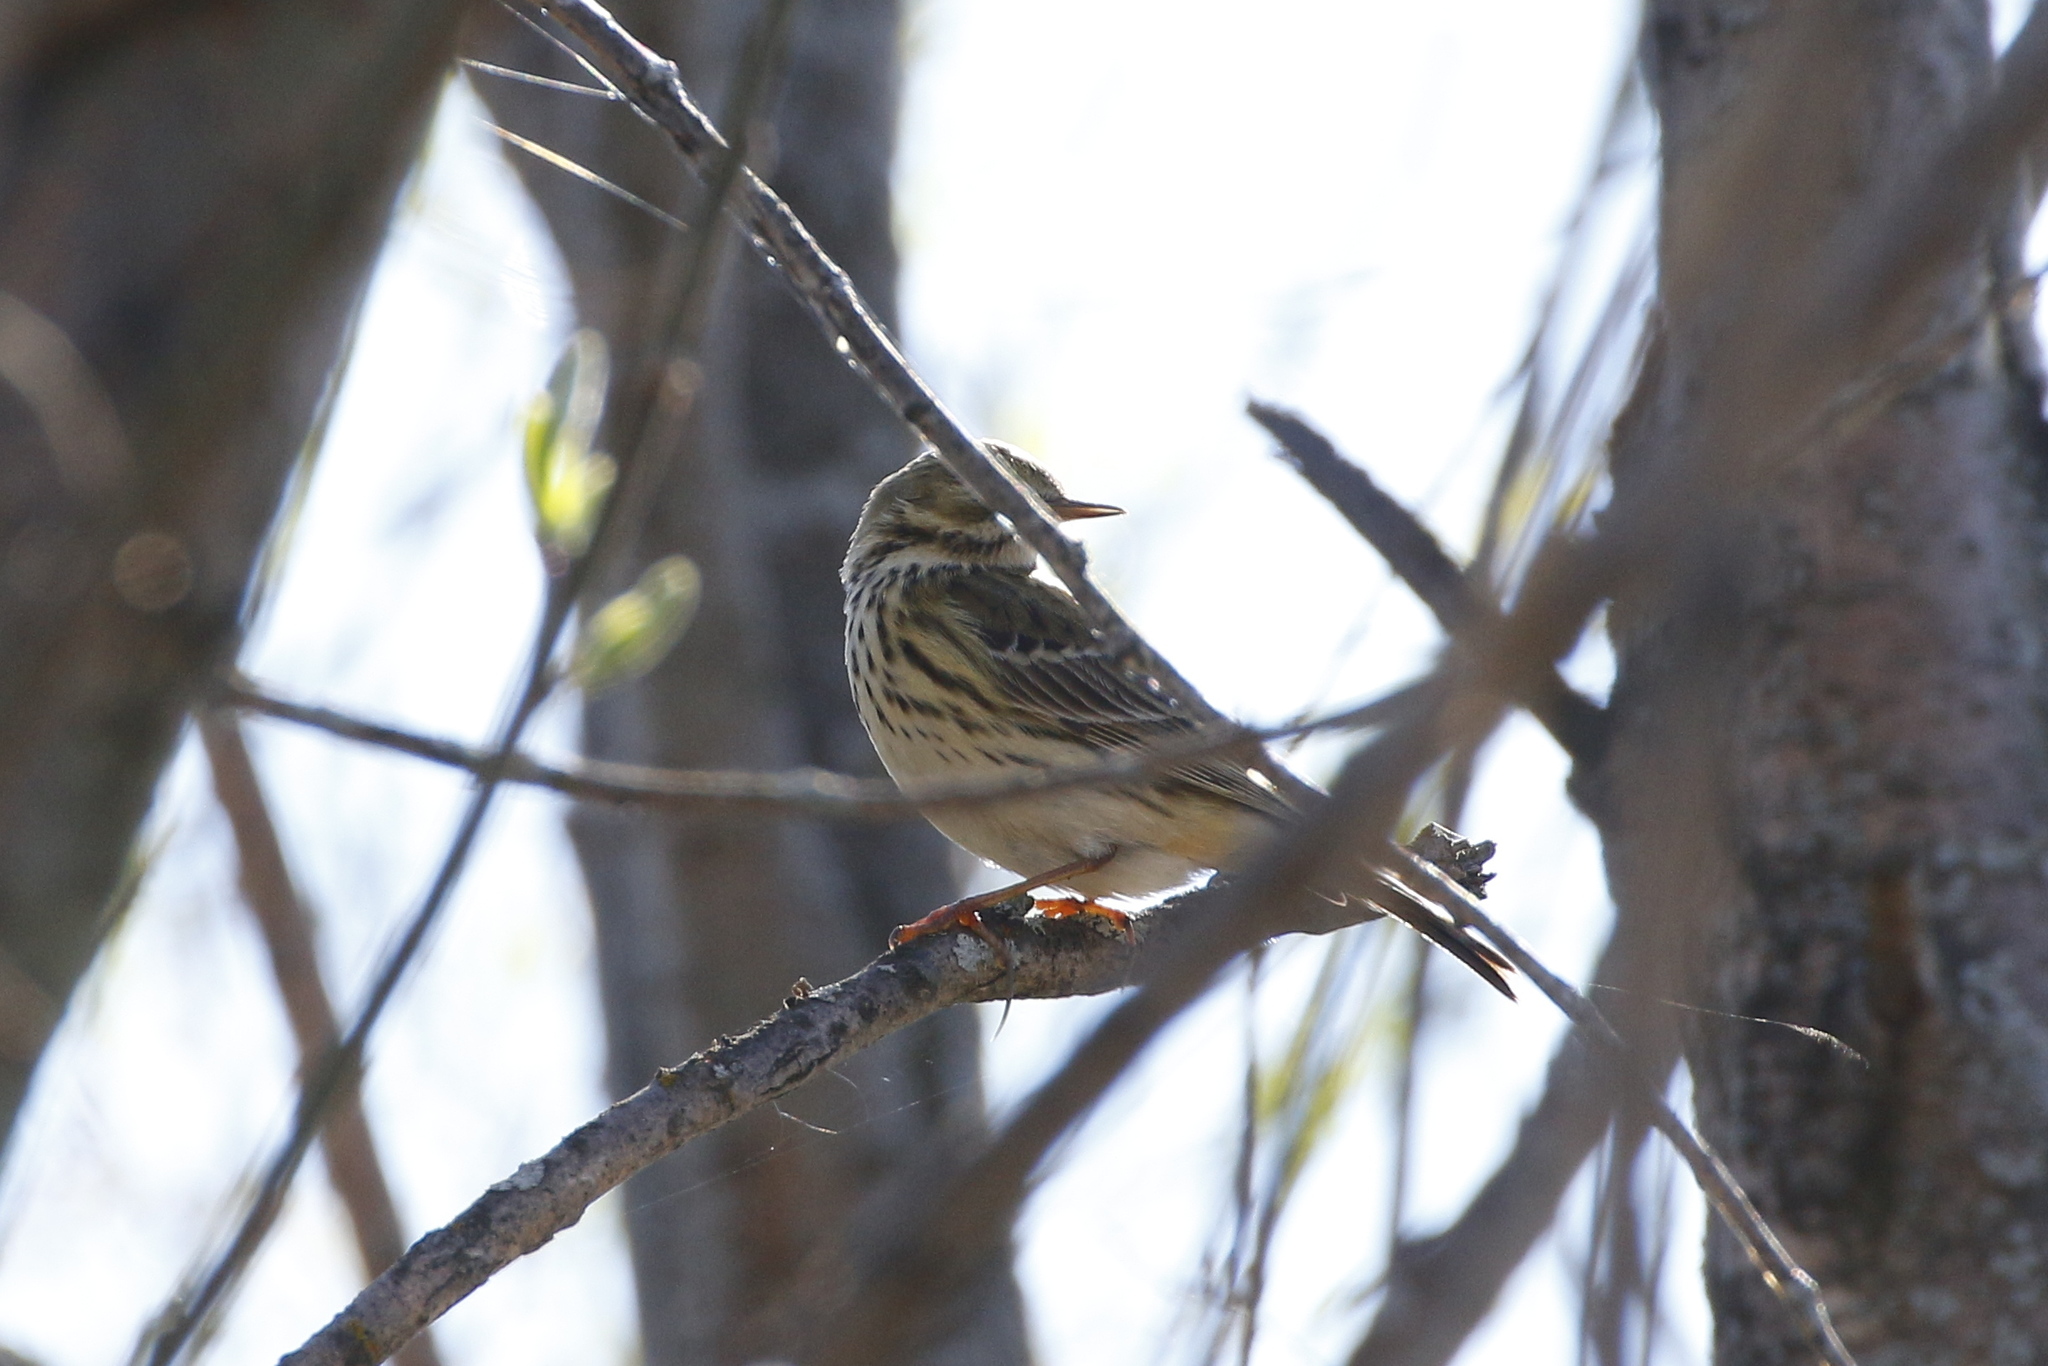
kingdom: Animalia
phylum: Chordata
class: Aves
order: Passeriformes
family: Motacillidae
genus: Anthus
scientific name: Anthus pratensis
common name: Meadow pipit
